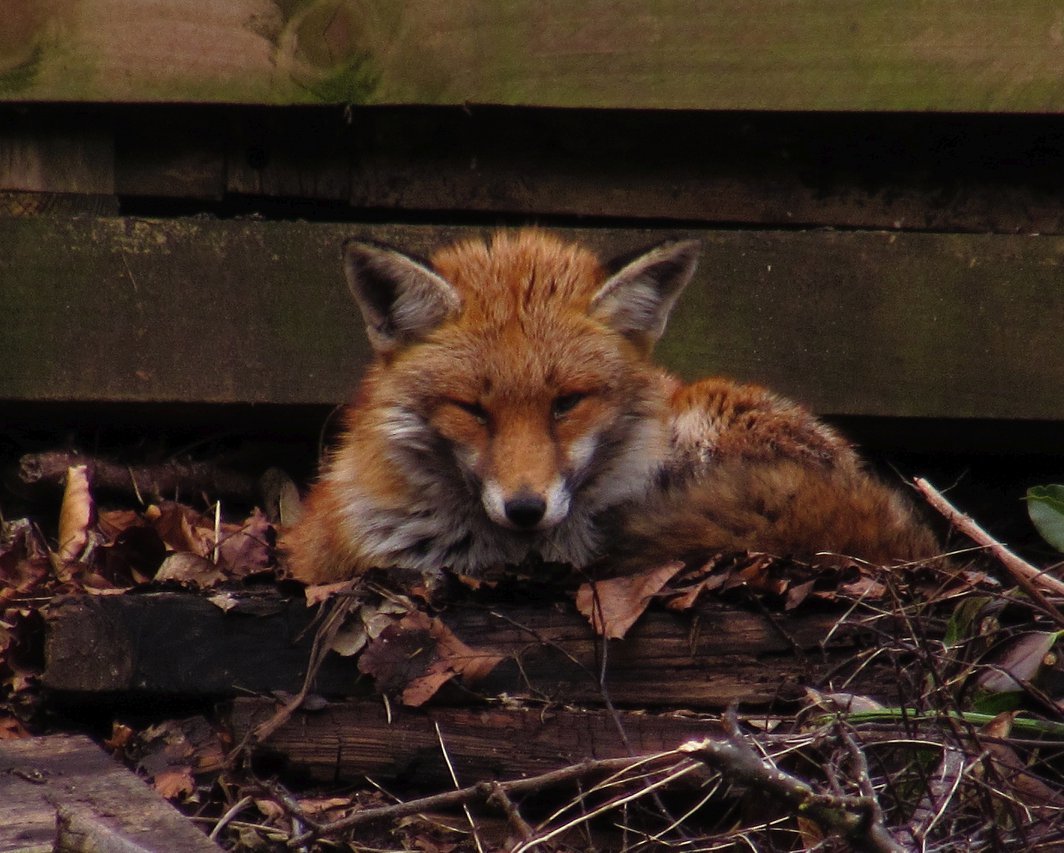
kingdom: Animalia
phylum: Chordata
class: Mammalia
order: Carnivora
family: Canidae
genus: Vulpes
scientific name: Vulpes vulpes
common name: Red fox
